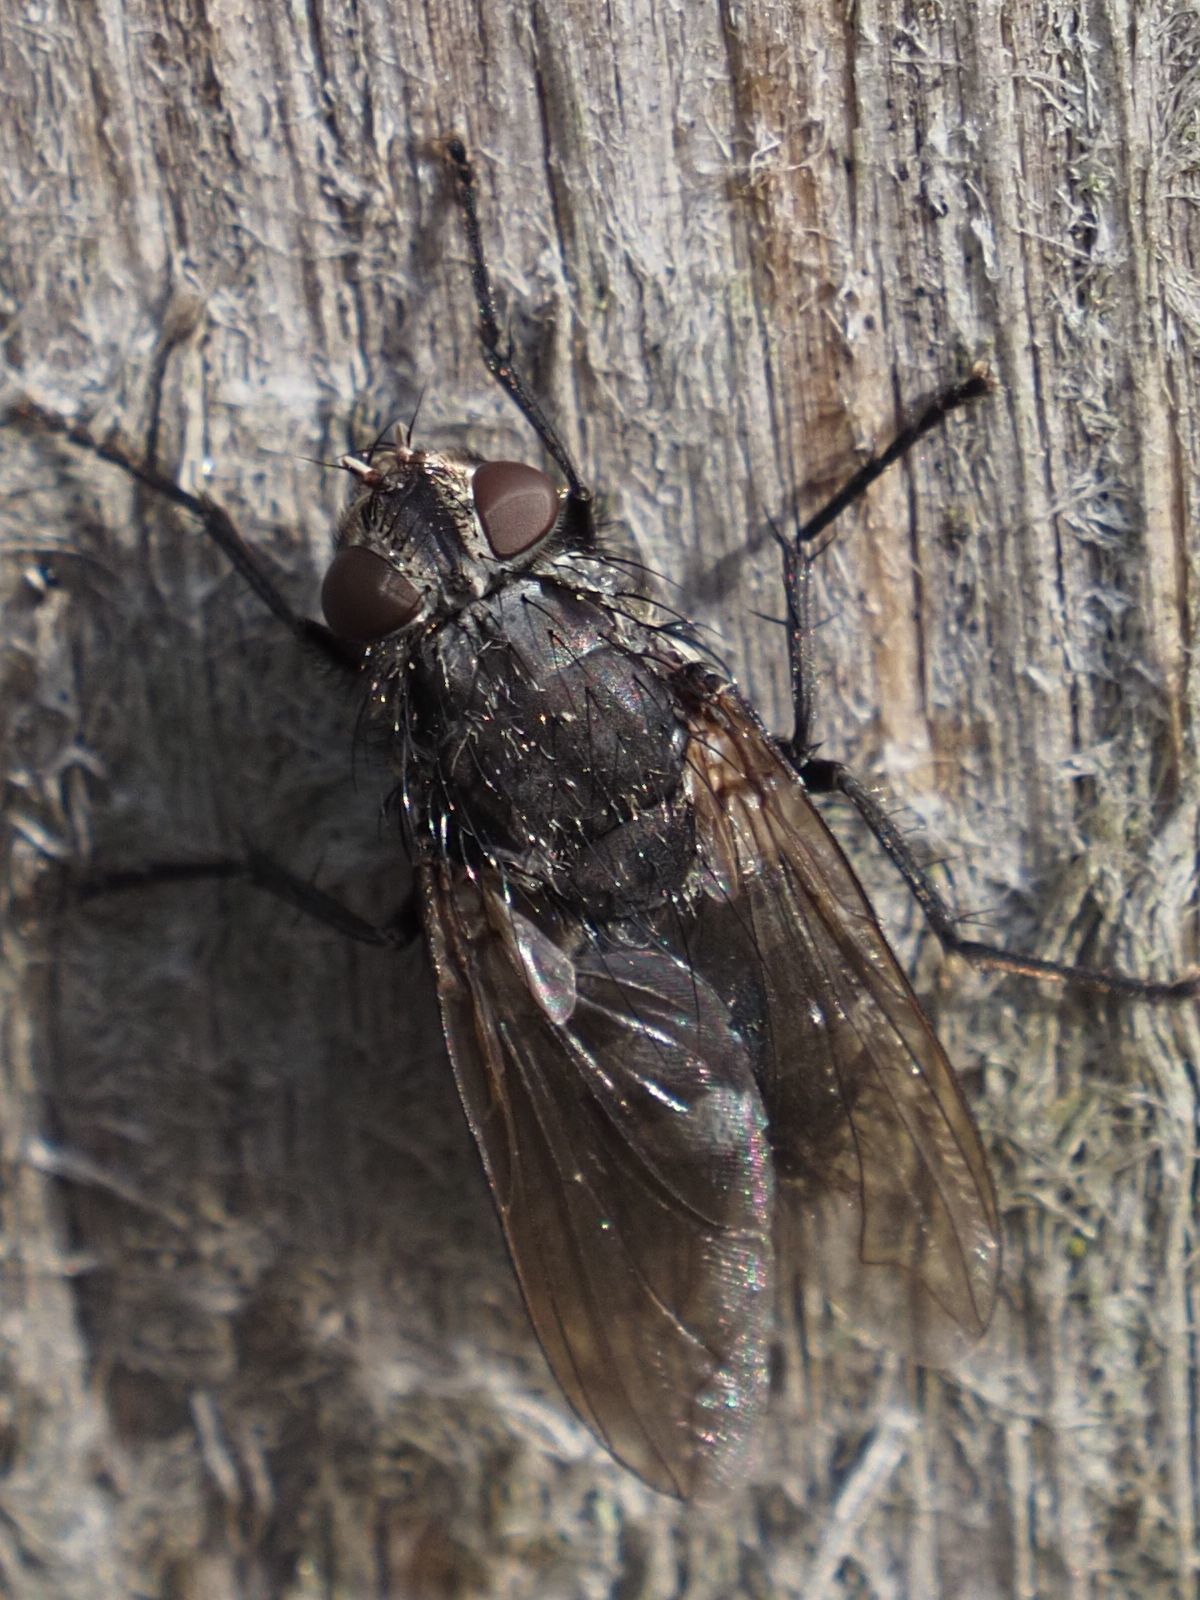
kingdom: Animalia
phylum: Arthropoda
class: Insecta
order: Diptera
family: Polleniidae
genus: Pollenia
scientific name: Pollenia vagabunda
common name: Vagabund cluster fly
